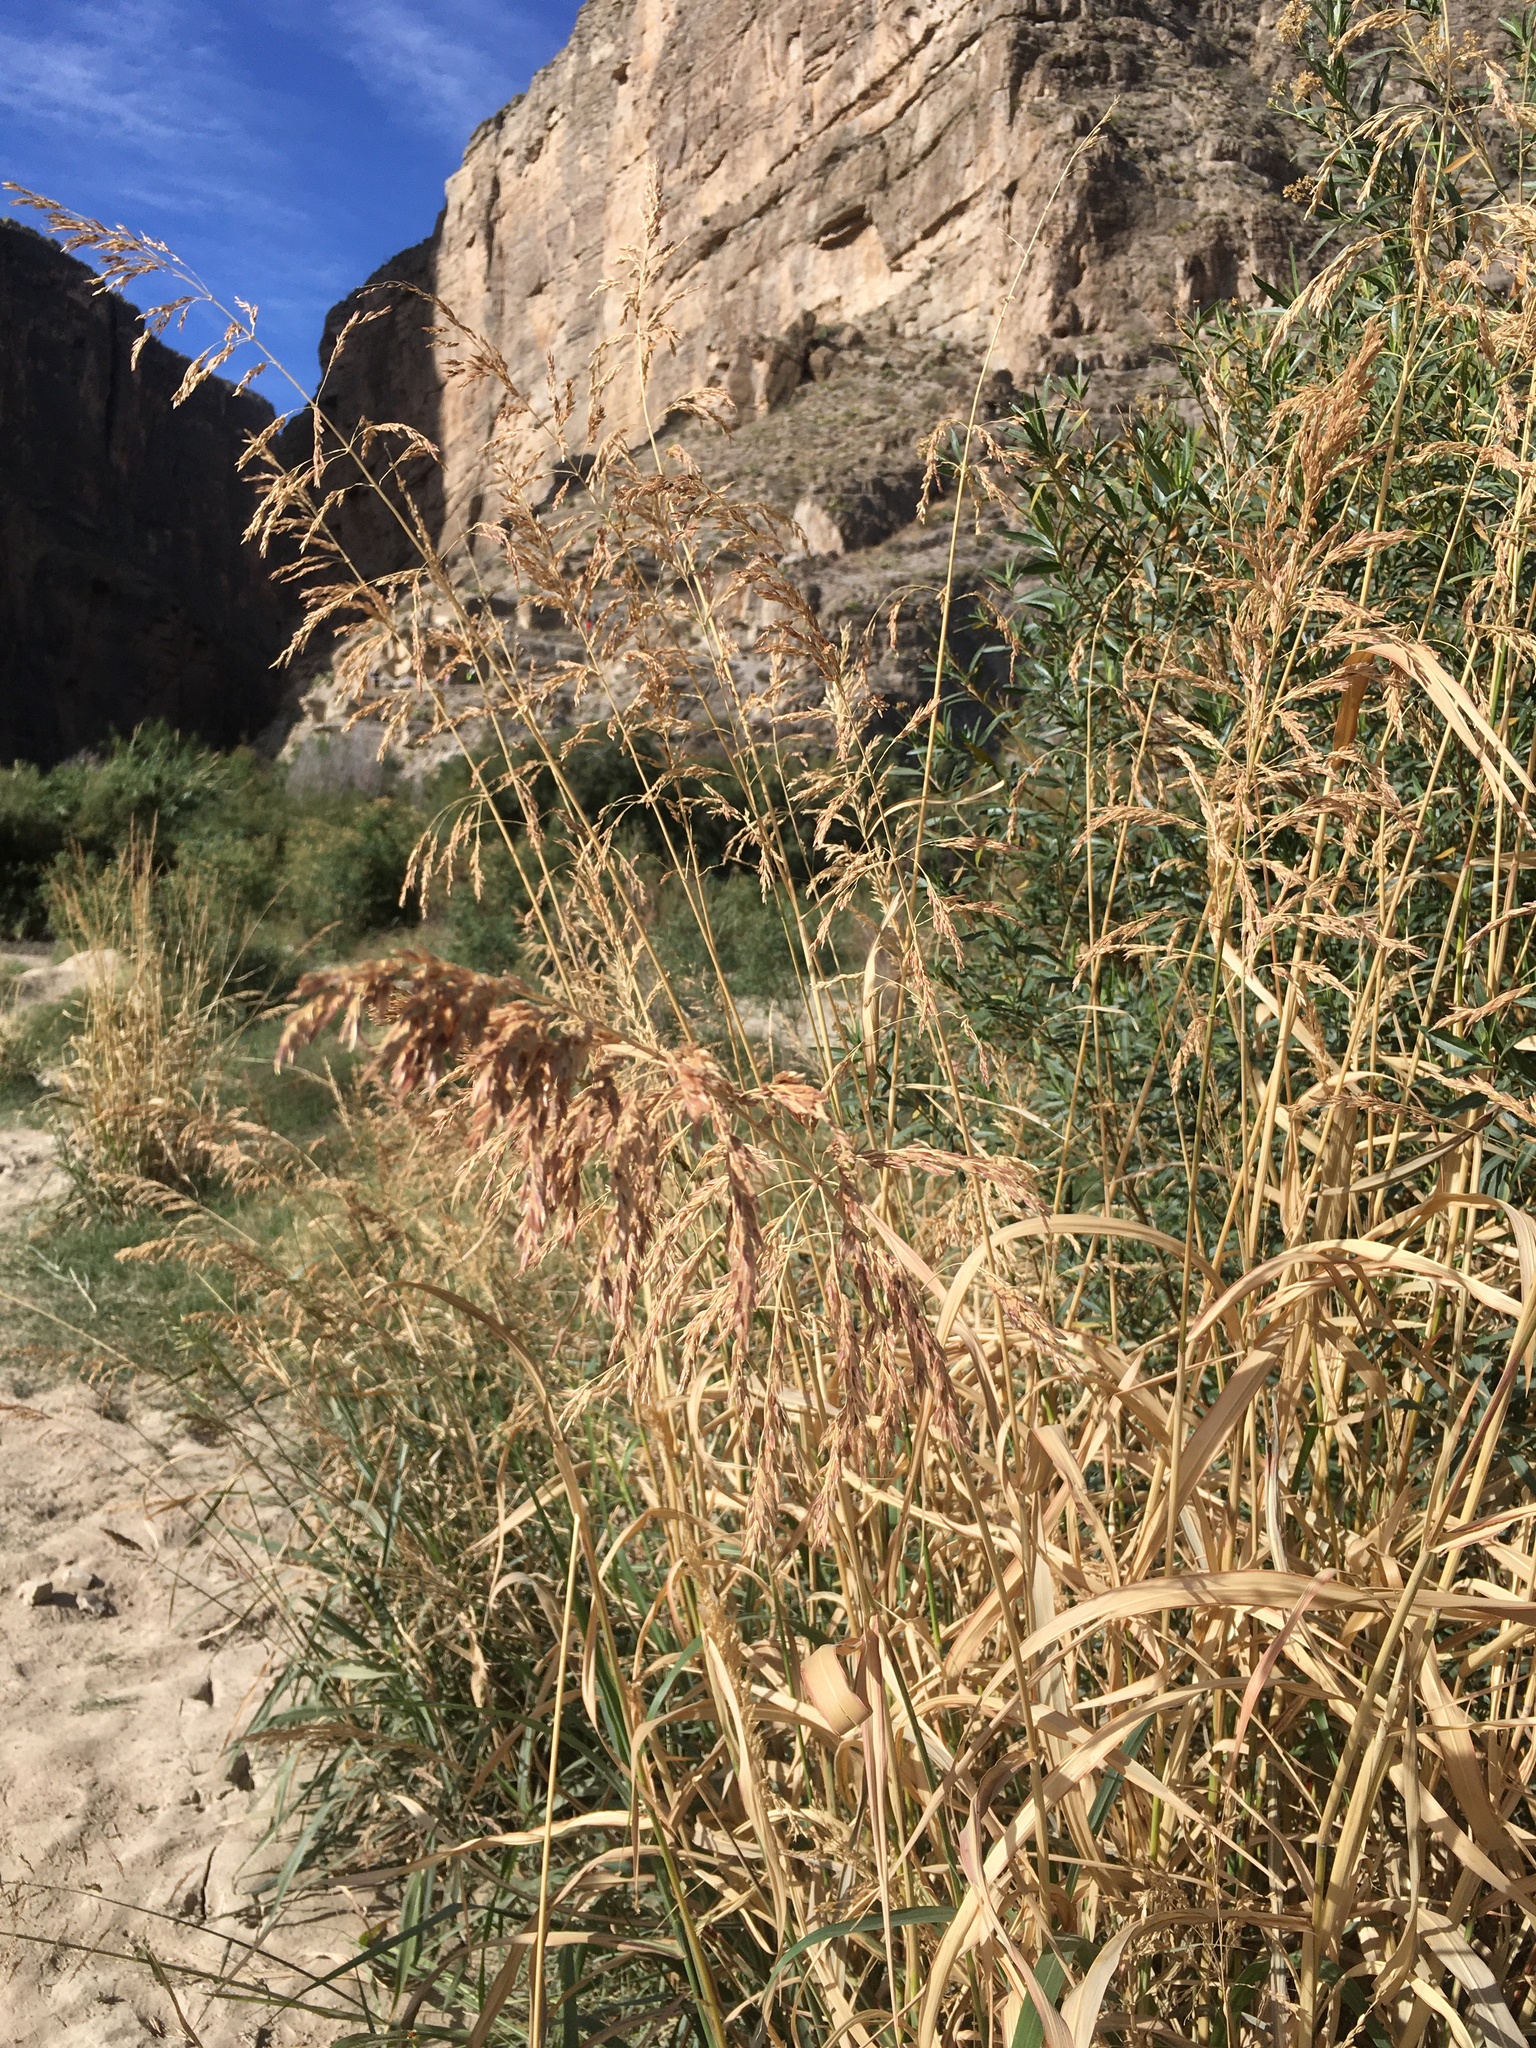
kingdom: Plantae
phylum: Tracheophyta
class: Liliopsida
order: Poales
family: Poaceae
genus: Sorghum
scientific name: Sorghum halepense
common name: Johnson-grass
